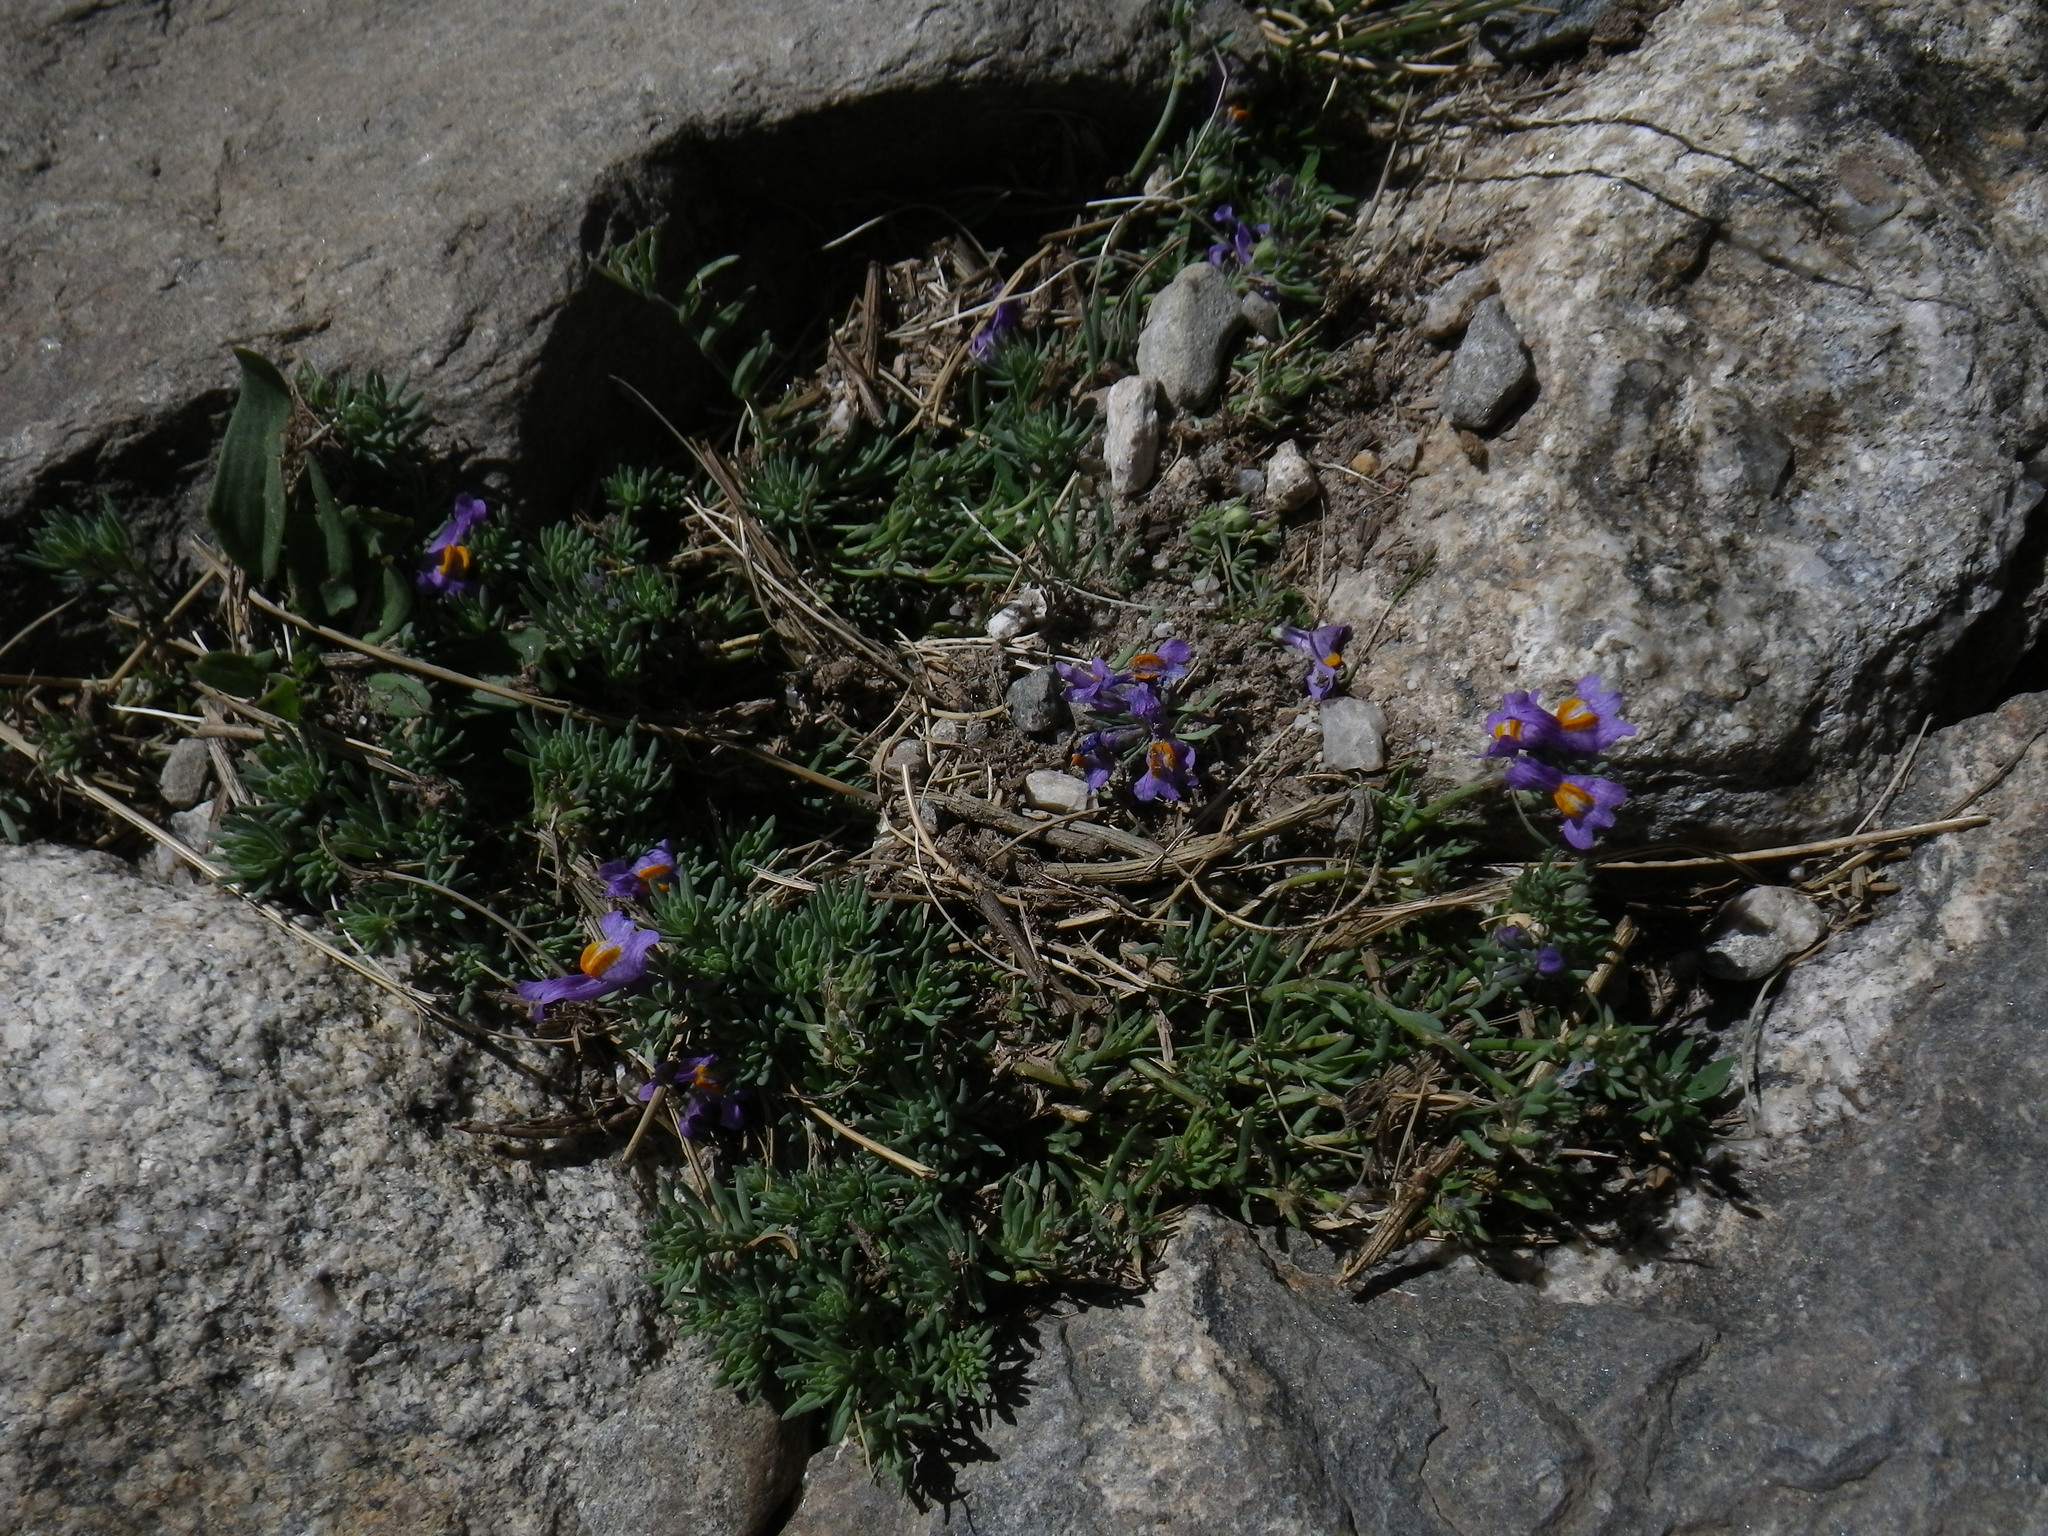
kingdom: Plantae
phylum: Tracheophyta
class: Magnoliopsida
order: Lamiales
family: Plantaginaceae
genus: Linaria
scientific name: Linaria alpina
